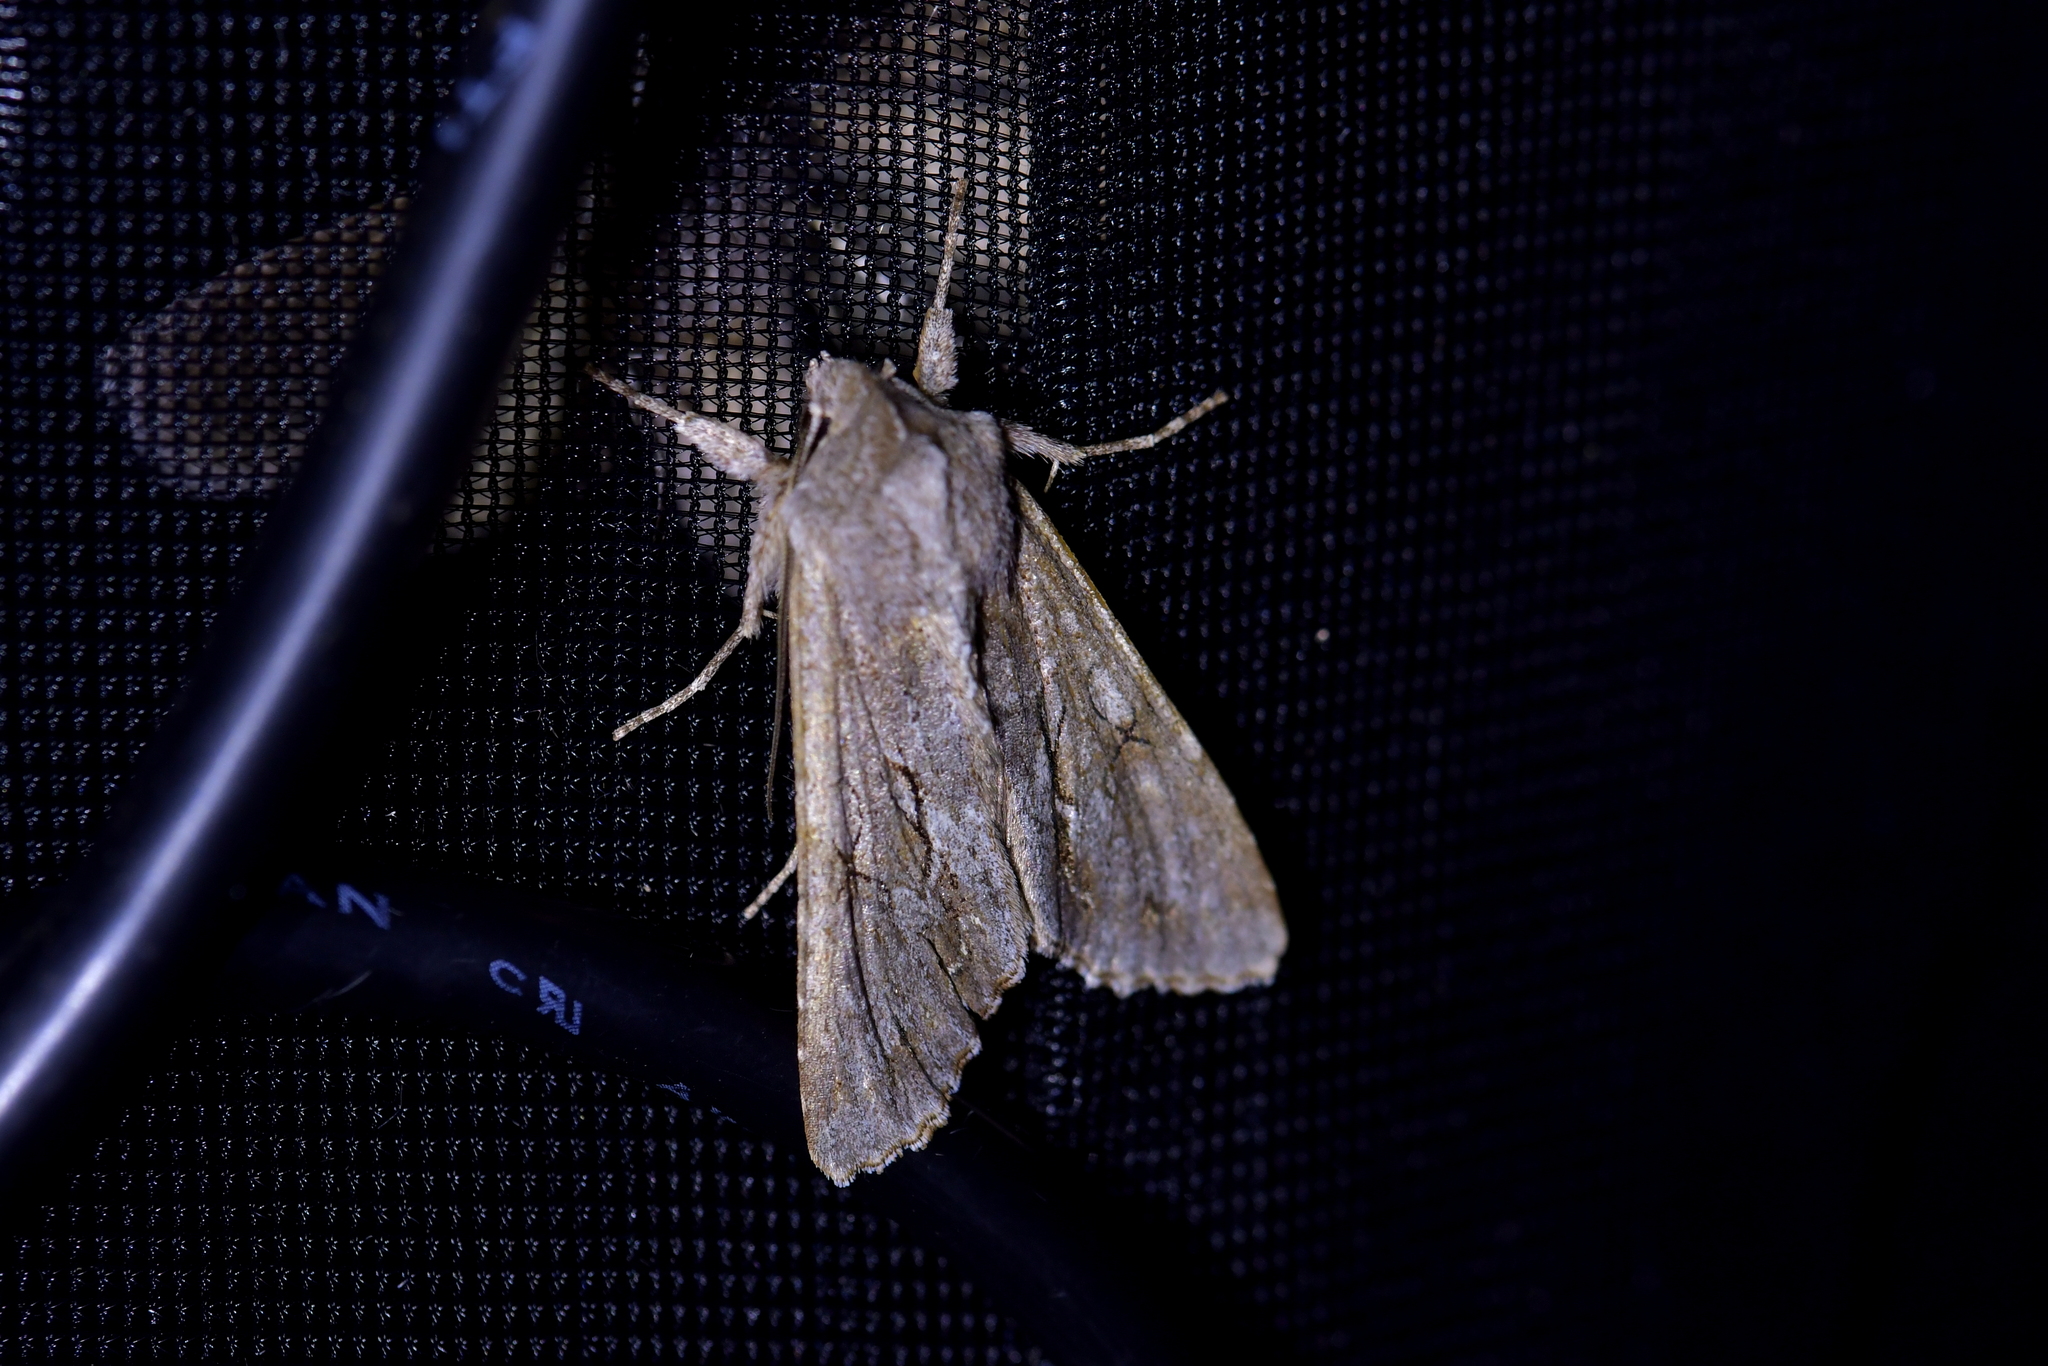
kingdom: Animalia
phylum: Arthropoda
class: Insecta
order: Lepidoptera
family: Noctuidae
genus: Ichneutica
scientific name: Ichneutica
